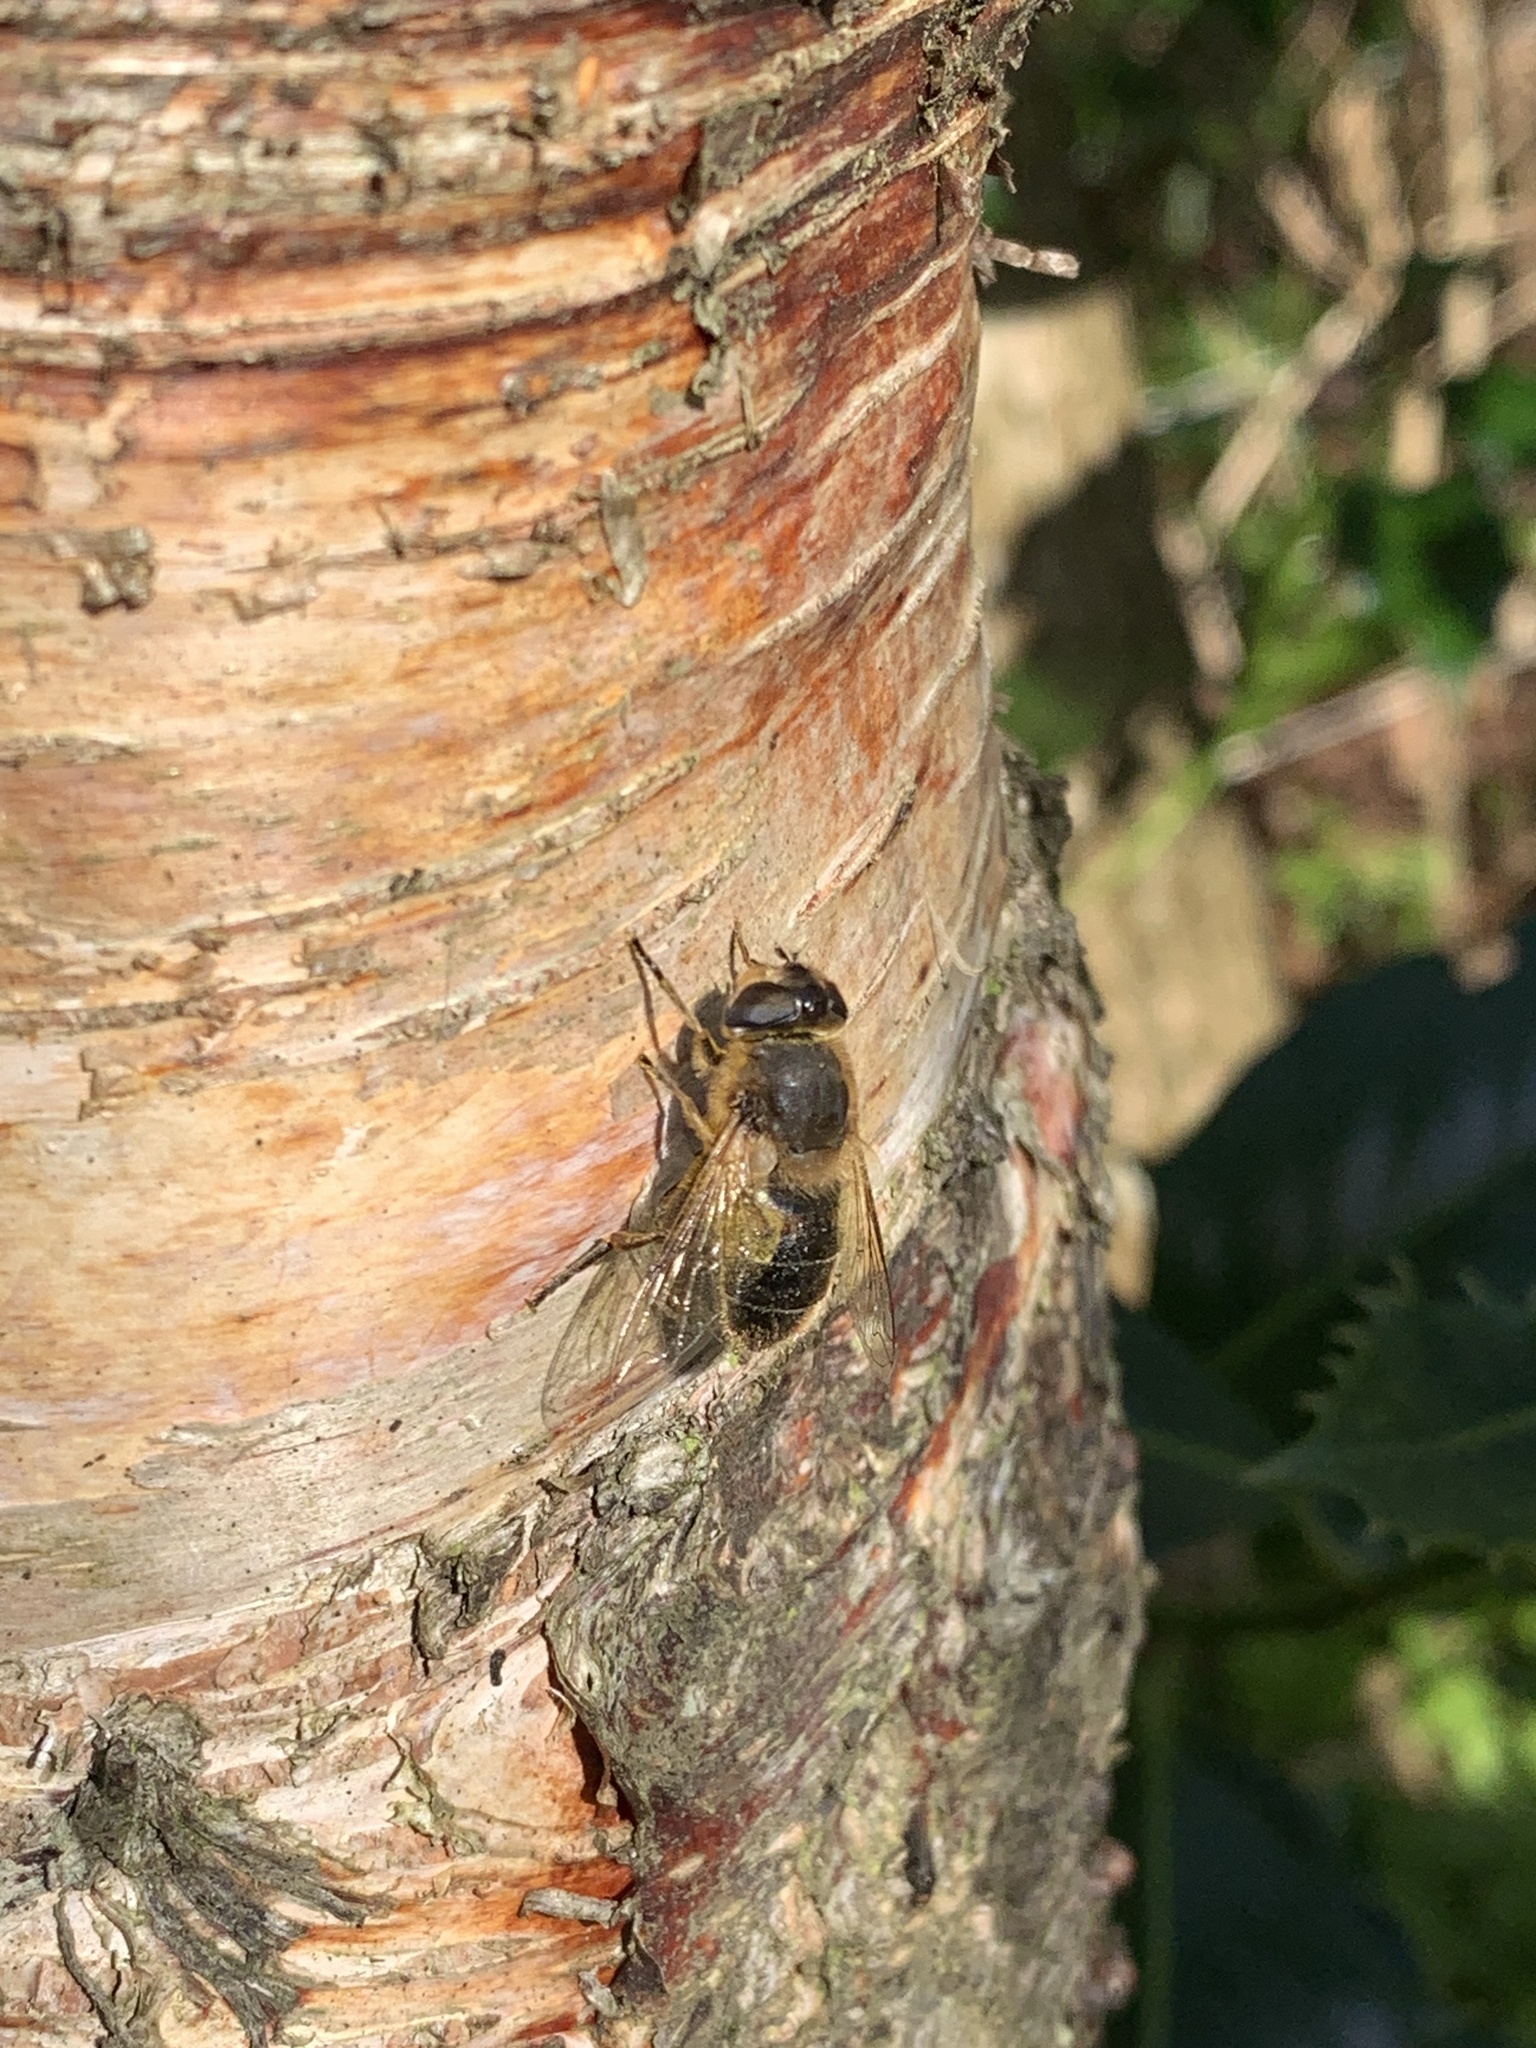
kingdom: Animalia
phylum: Arthropoda
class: Insecta
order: Diptera
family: Syrphidae
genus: Eristalis
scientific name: Eristalis tenax
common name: Drone fly
